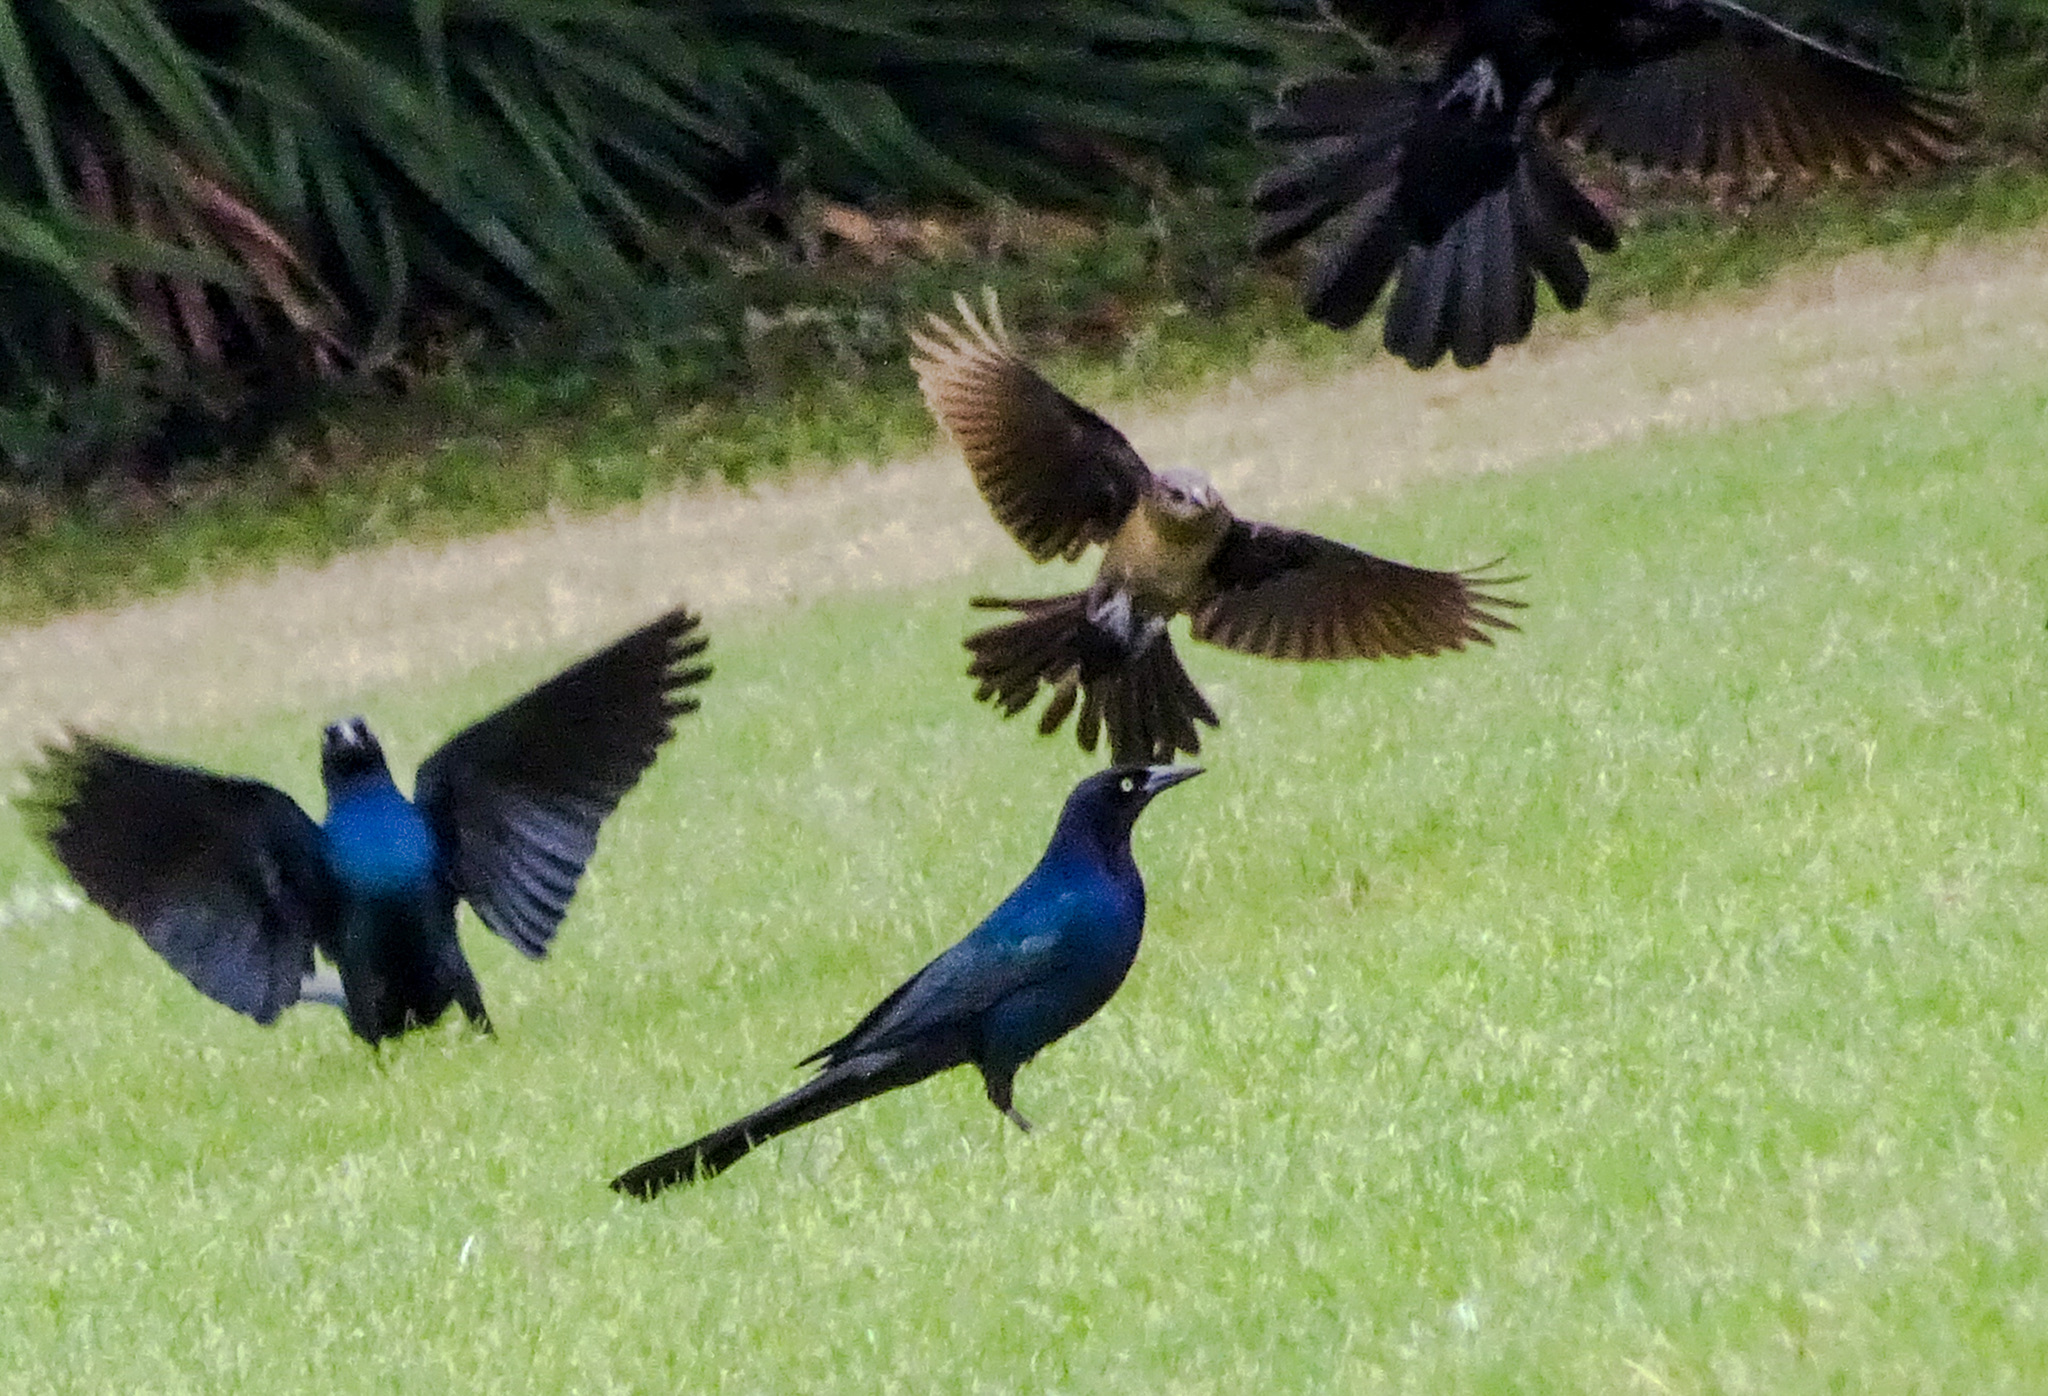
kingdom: Animalia
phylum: Chordata
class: Aves
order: Passeriformes
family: Icteridae
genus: Quiscalus
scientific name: Quiscalus major
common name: Boat-tailed grackle
